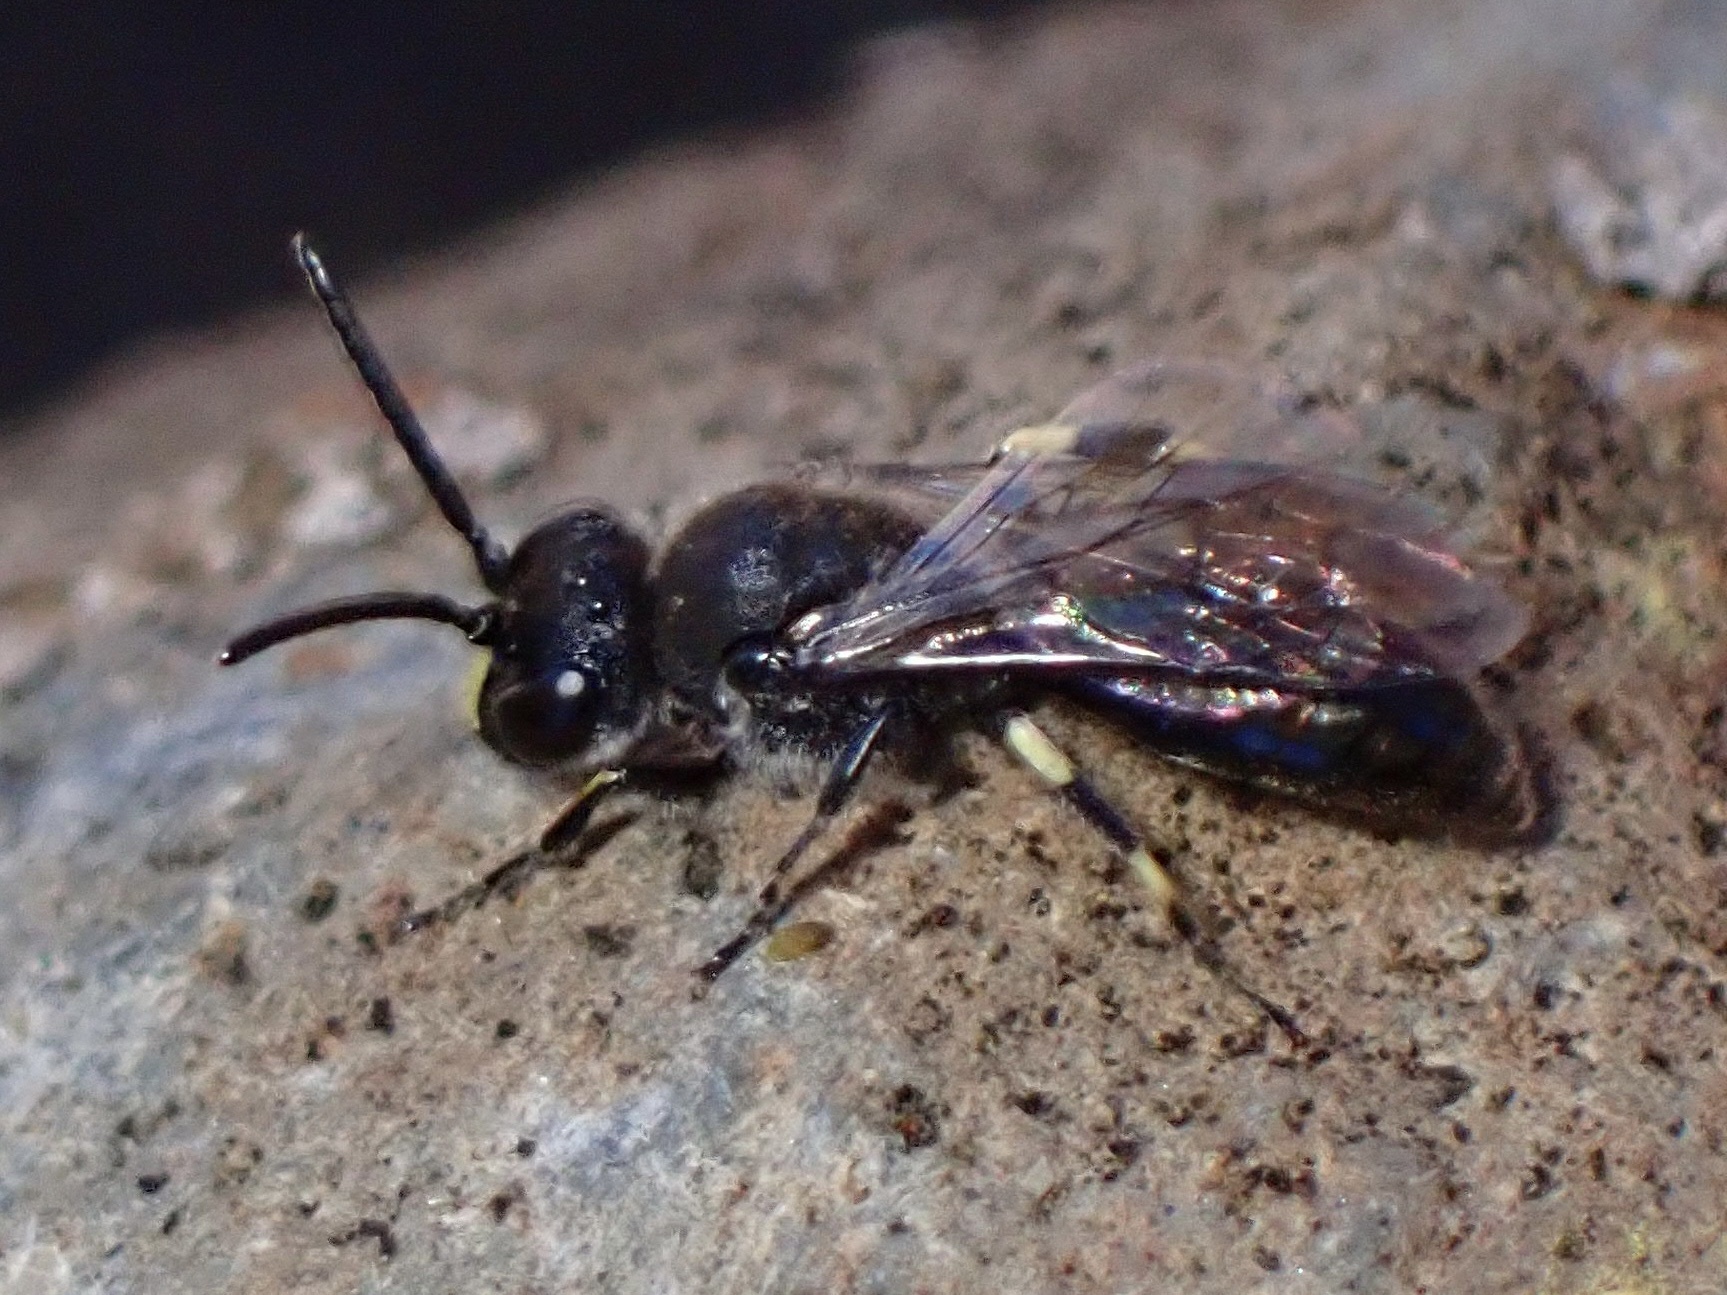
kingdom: Animalia
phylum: Arthropoda
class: Insecta
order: Hymenoptera
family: Colletidae
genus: Hylaeus
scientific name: Hylaeus nivicola
